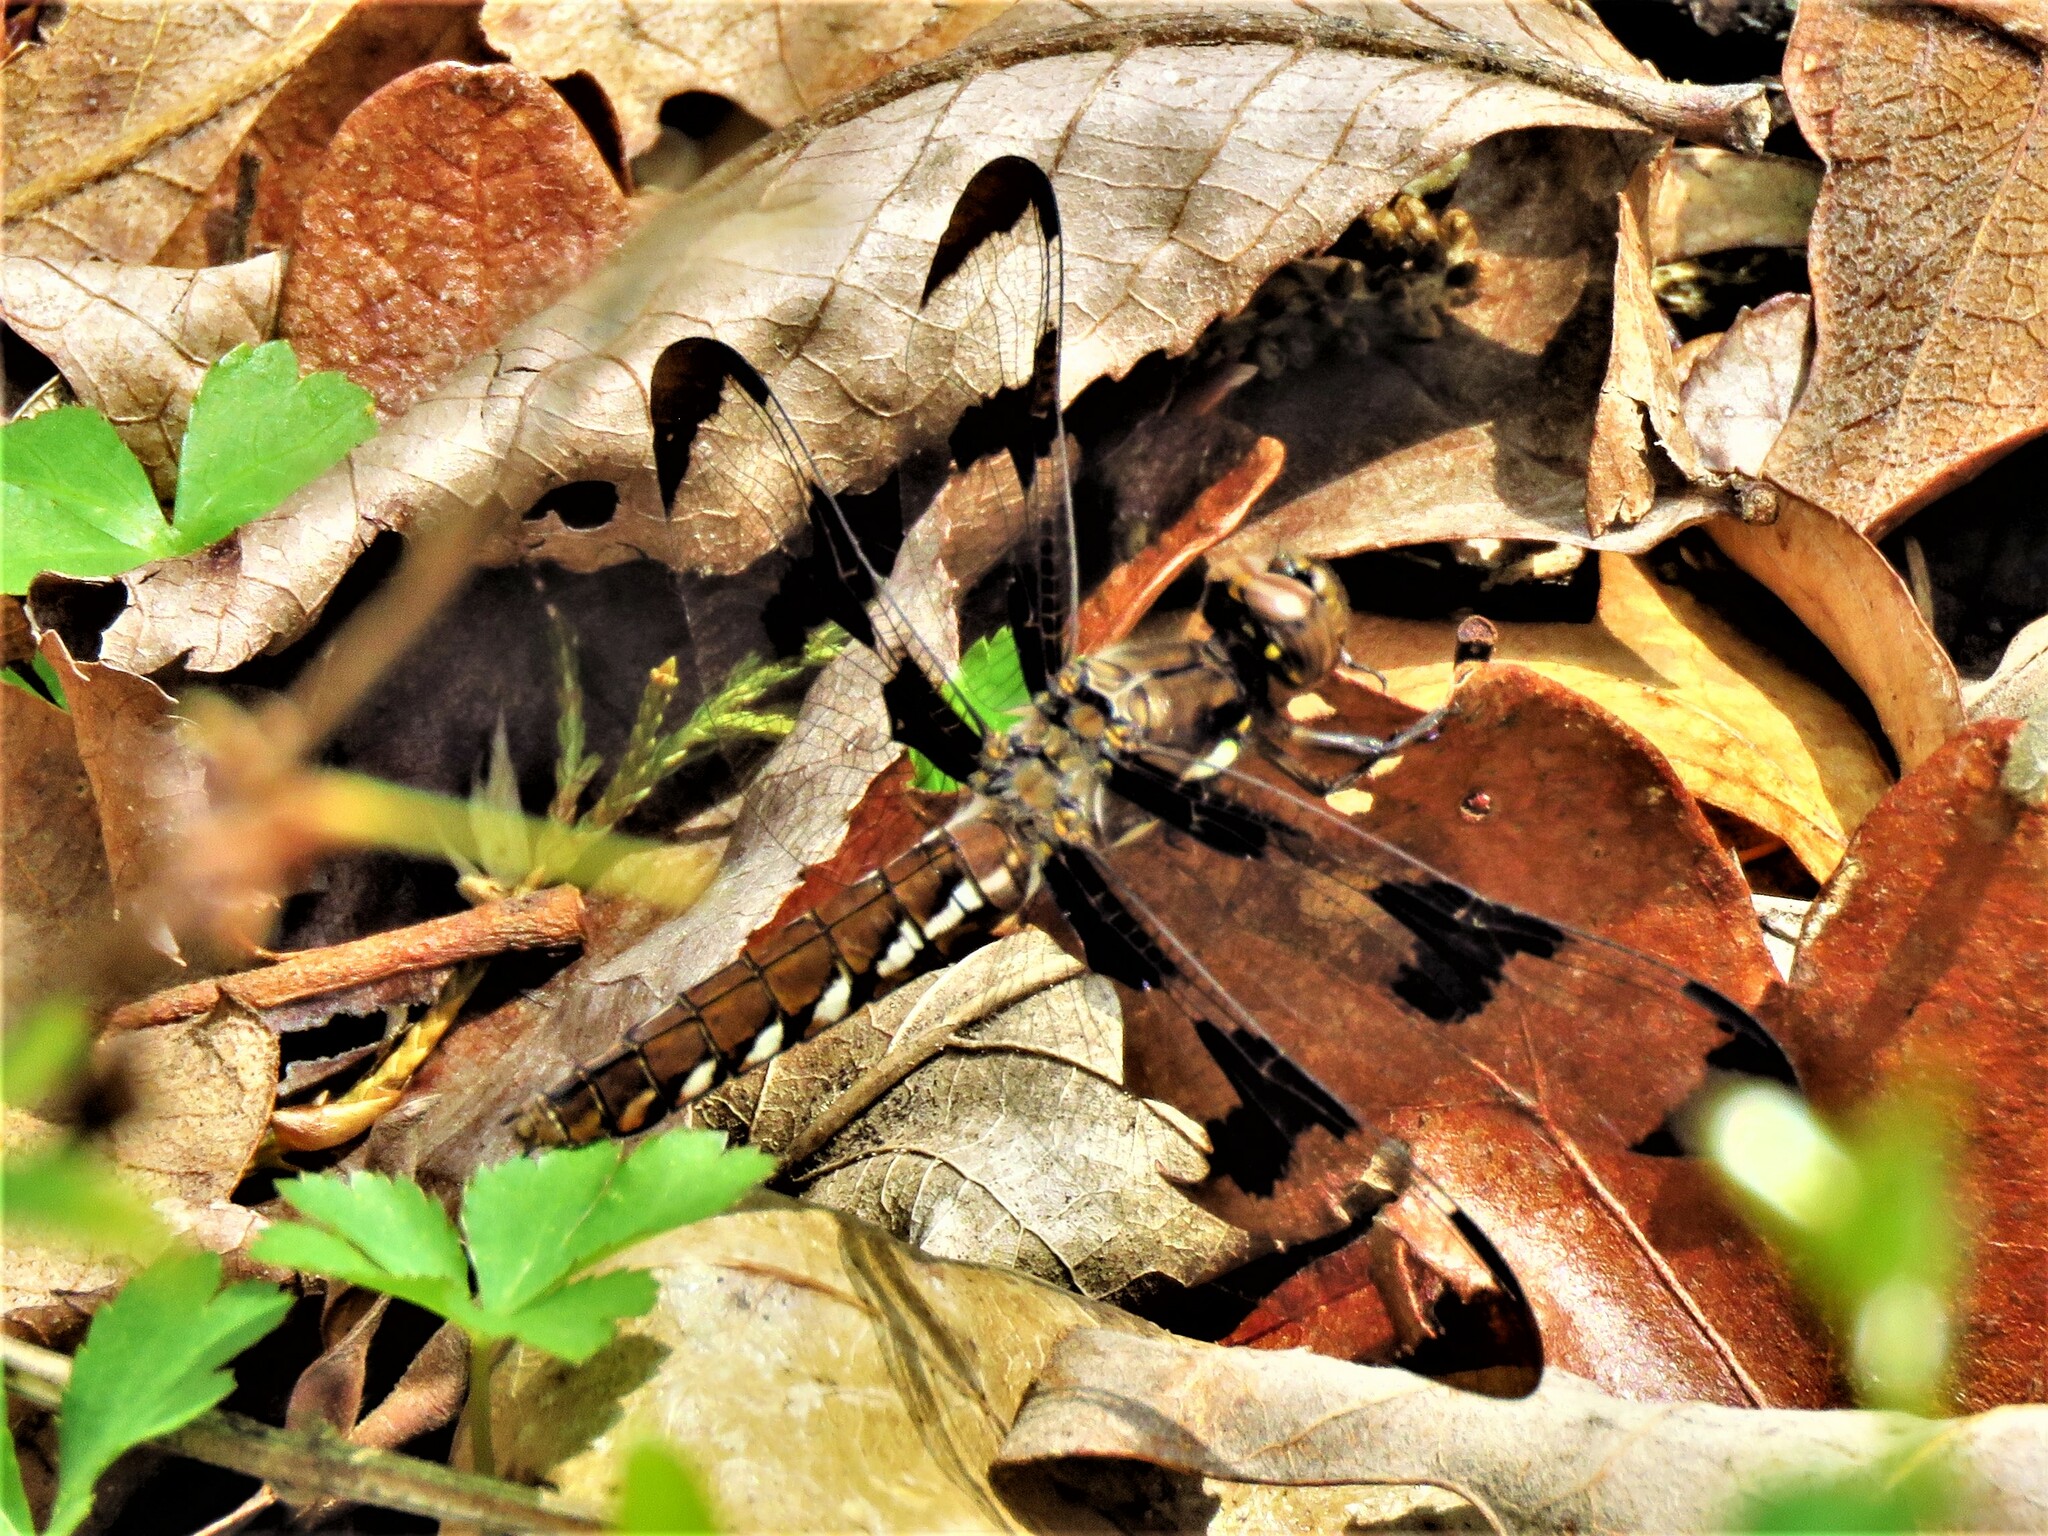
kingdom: Animalia
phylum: Arthropoda
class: Insecta
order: Odonata
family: Libellulidae
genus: Plathemis
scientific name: Plathemis lydia
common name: Common whitetail
